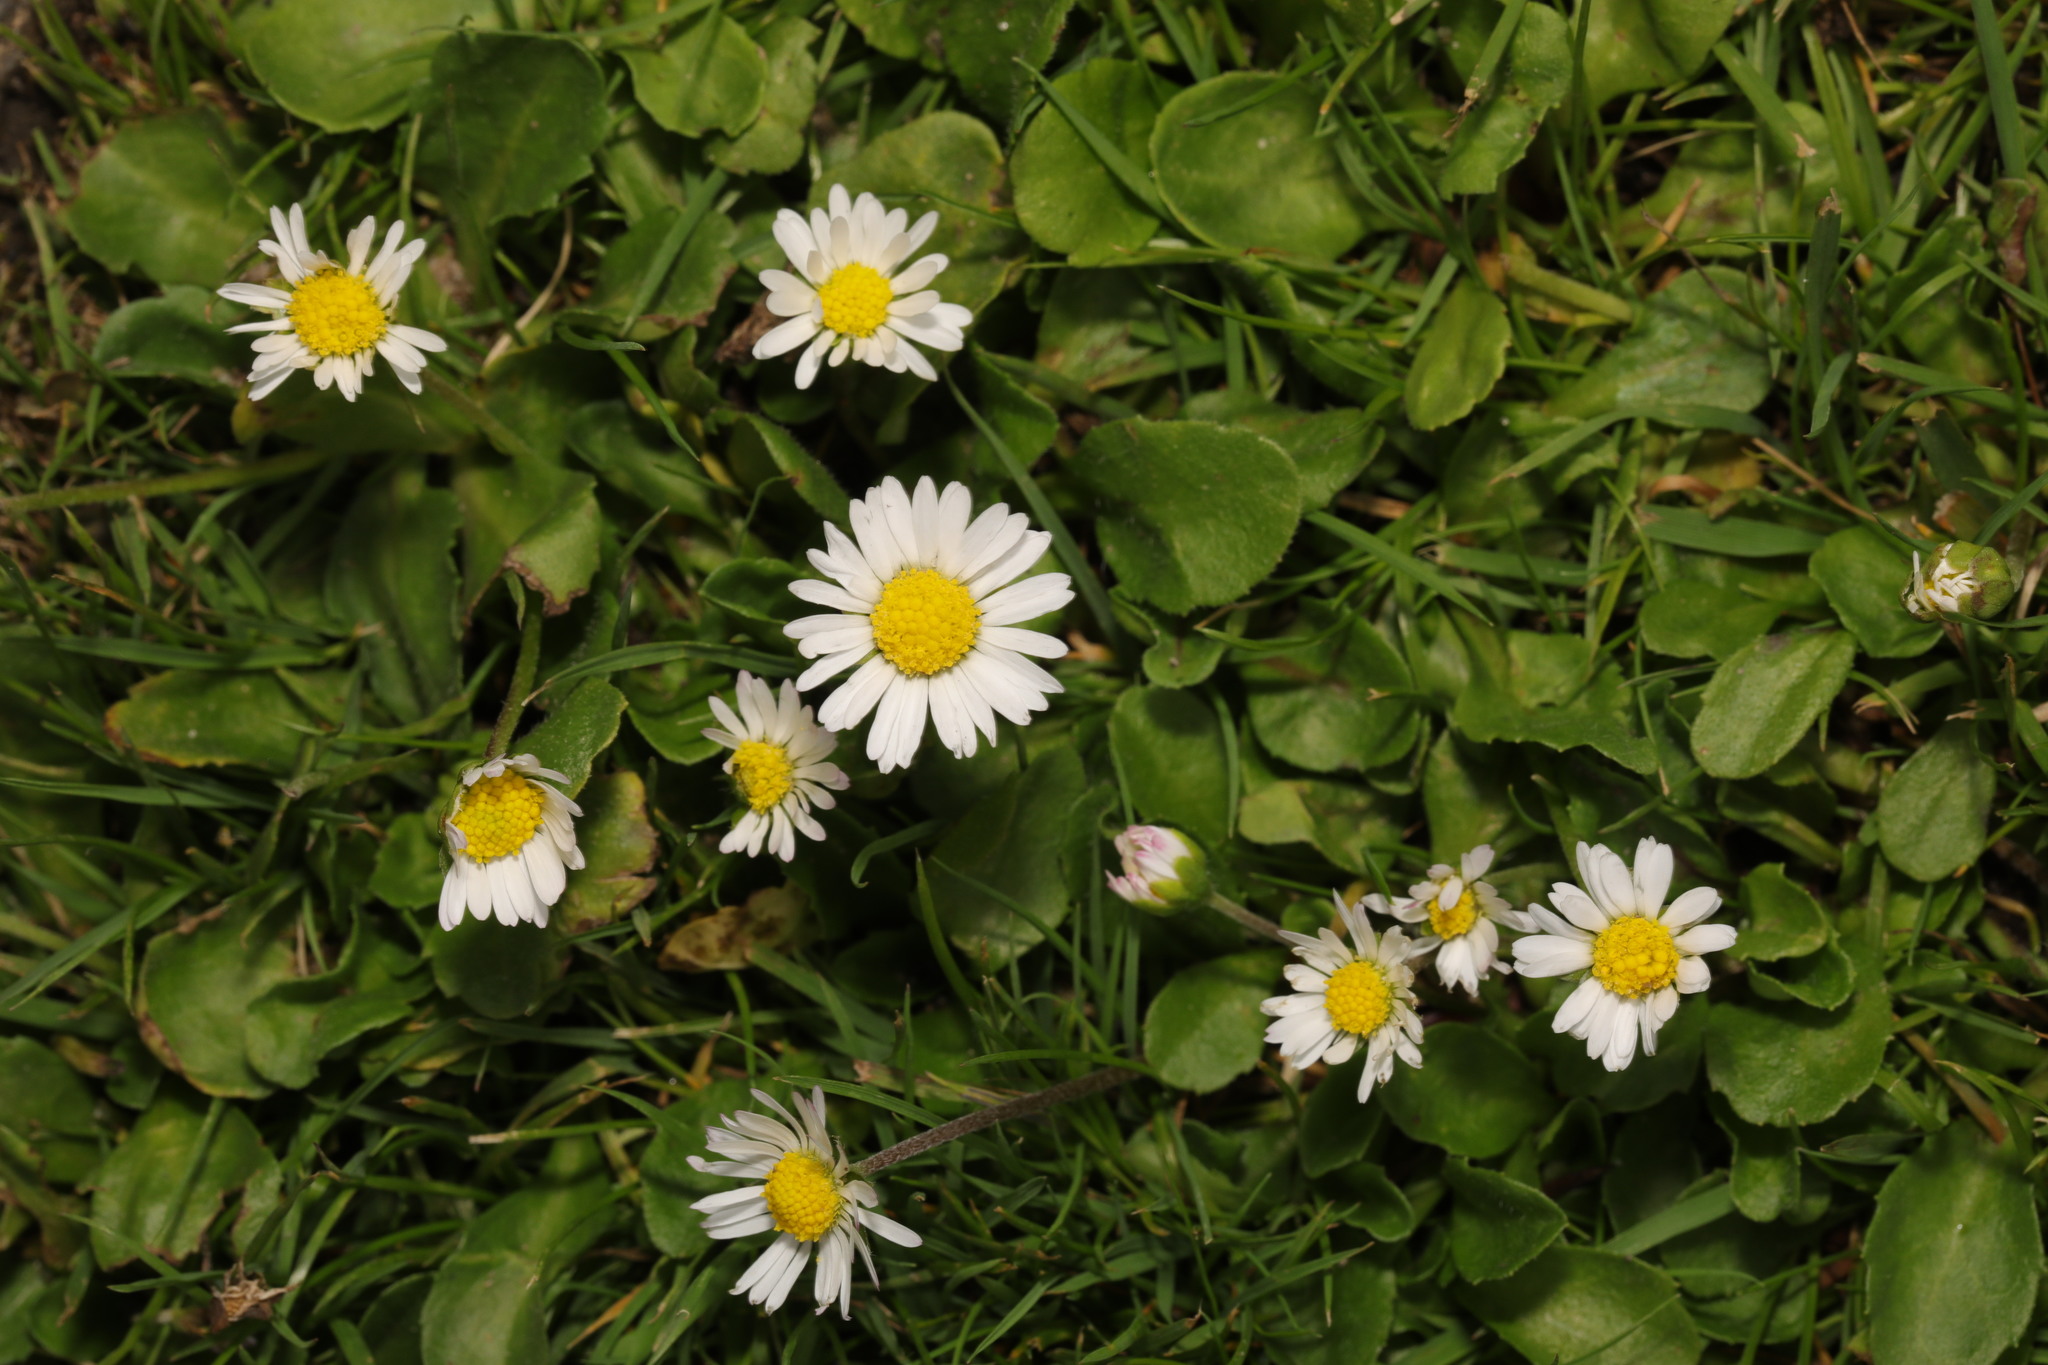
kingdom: Plantae
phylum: Tracheophyta
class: Magnoliopsida
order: Asterales
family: Asteraceae
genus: Bellis
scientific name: Bellis perennis
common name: Lawndaisy
